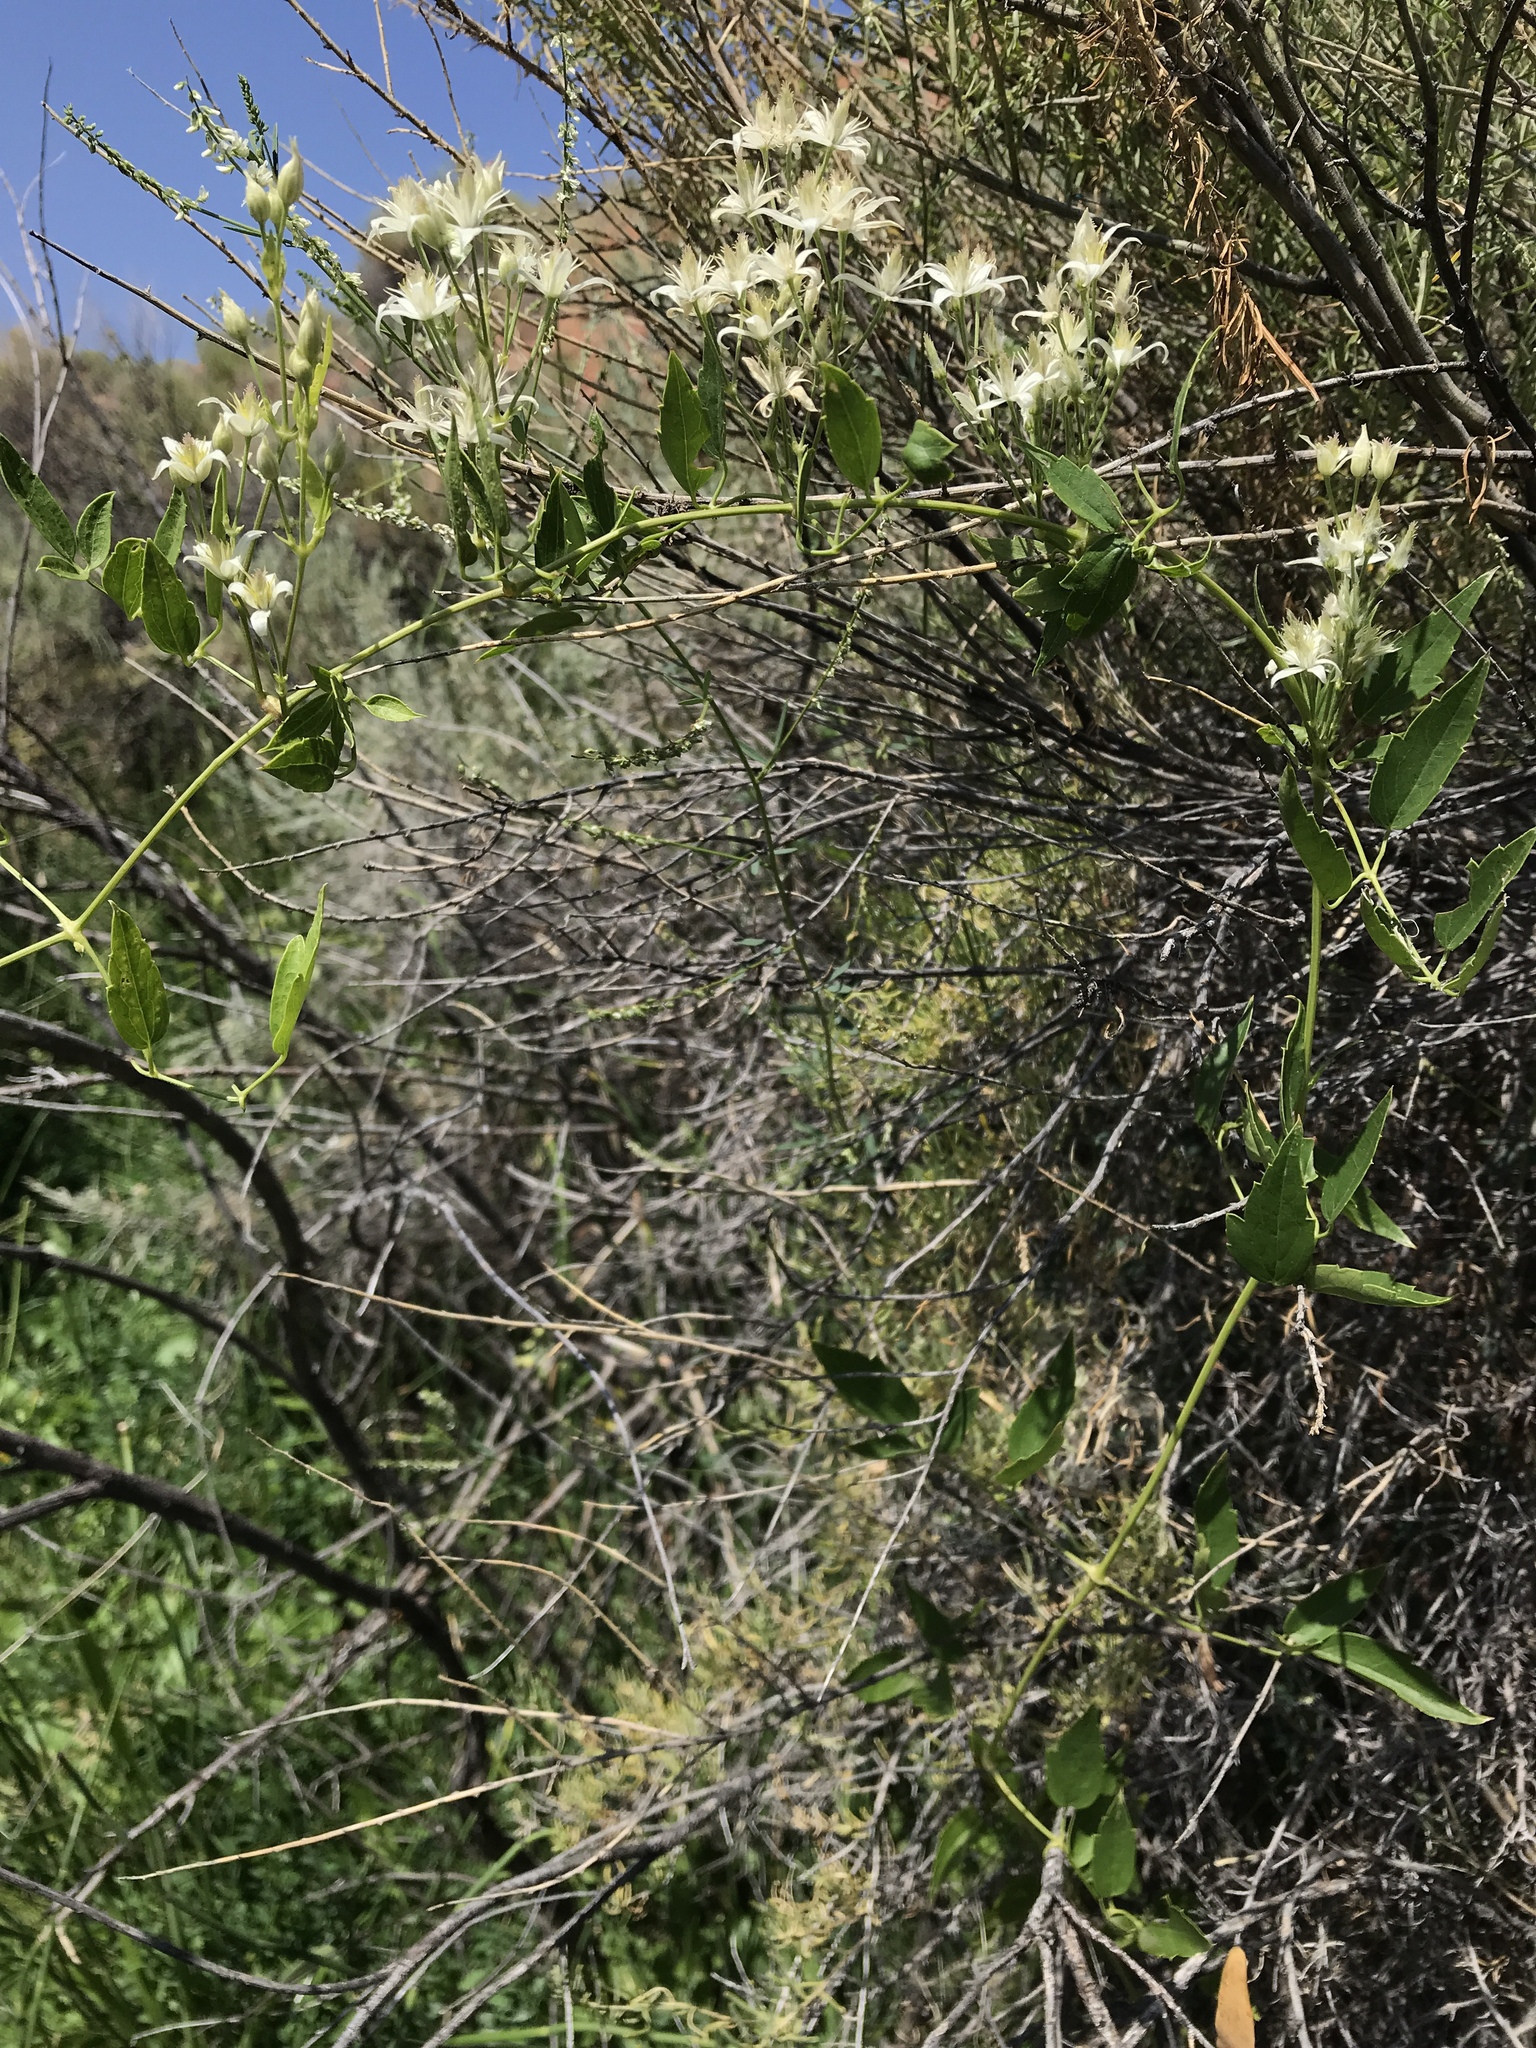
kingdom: Plantae
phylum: Tracheophyta
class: Magnoliopsida
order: Ranunculales
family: Ranunculaceae
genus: Clematis
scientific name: Clematis ligusticifolia
